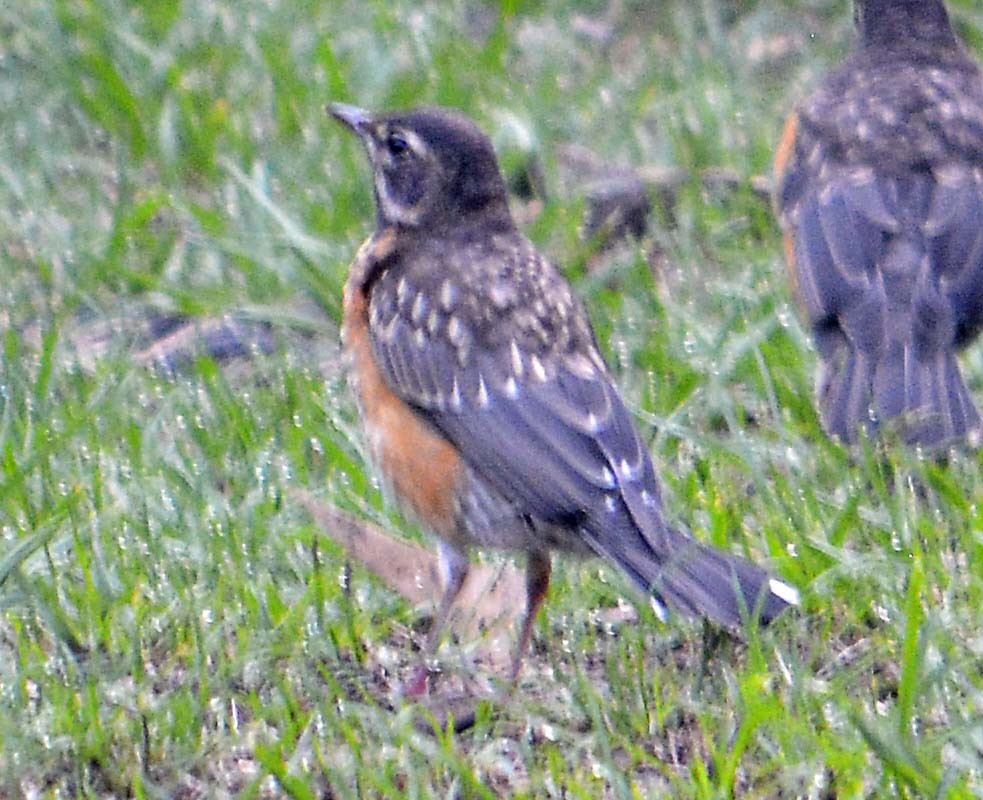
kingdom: Animalia
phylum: Chordata
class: Aves
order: Passeriformes
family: Turdidae
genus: Turdus
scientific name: Turdus migratorius
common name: American robin
